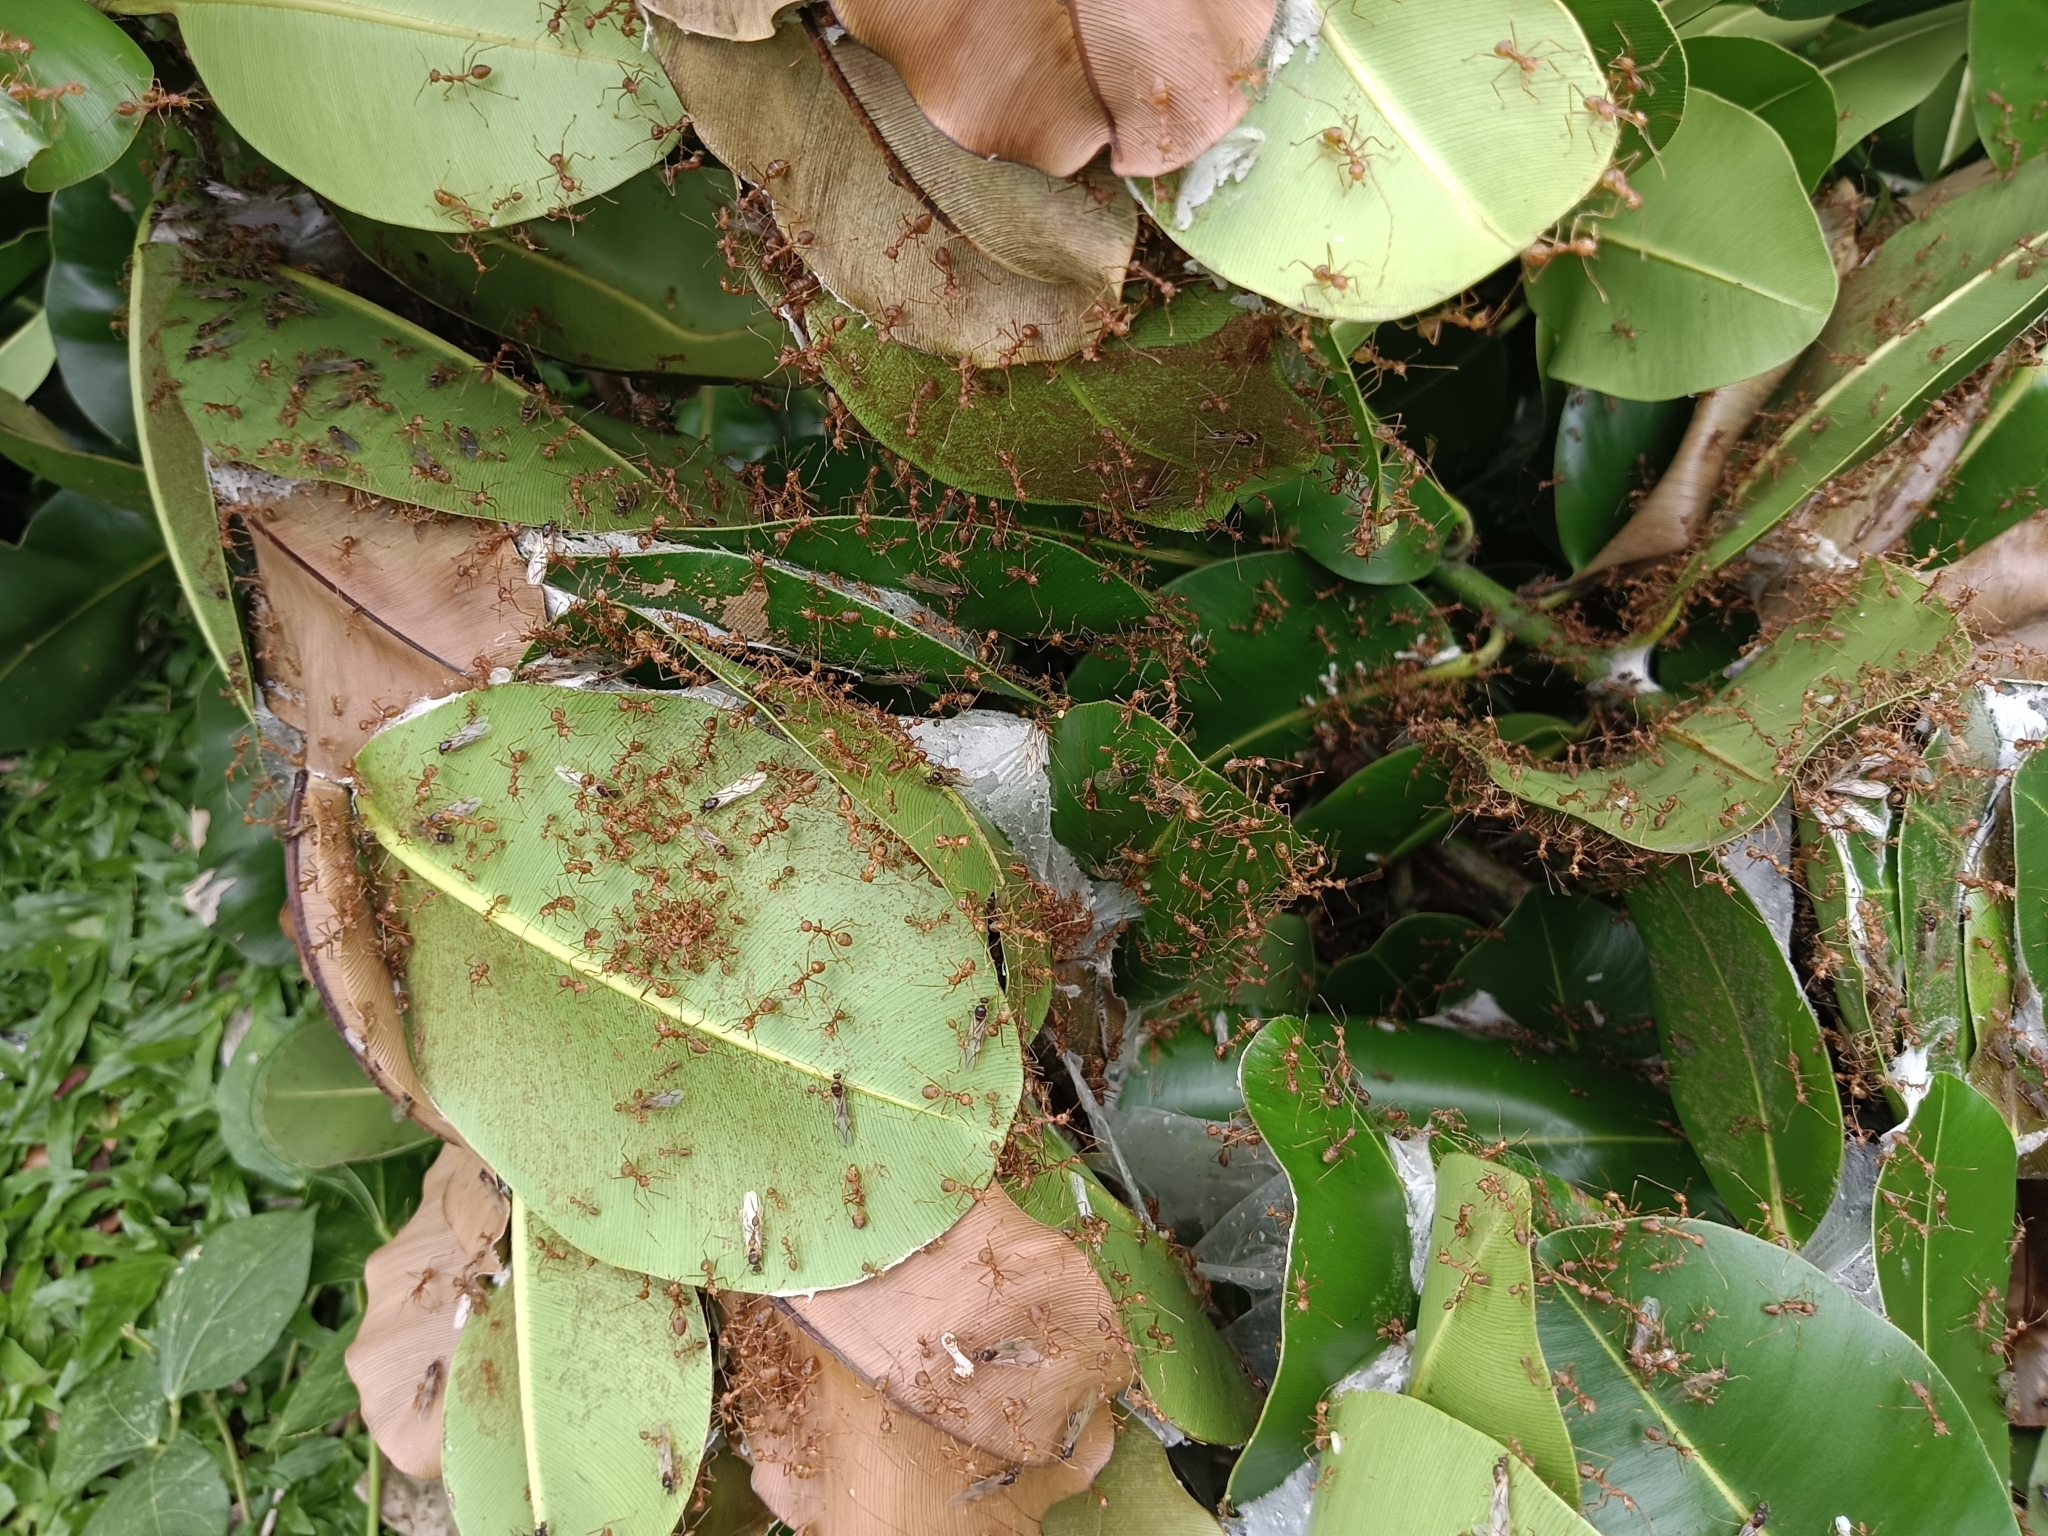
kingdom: Animalia
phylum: Arthropoda
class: Insecta
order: Hymenoptera
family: Formicidae
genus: Oecophylla
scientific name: Oecophylla smaragdina
